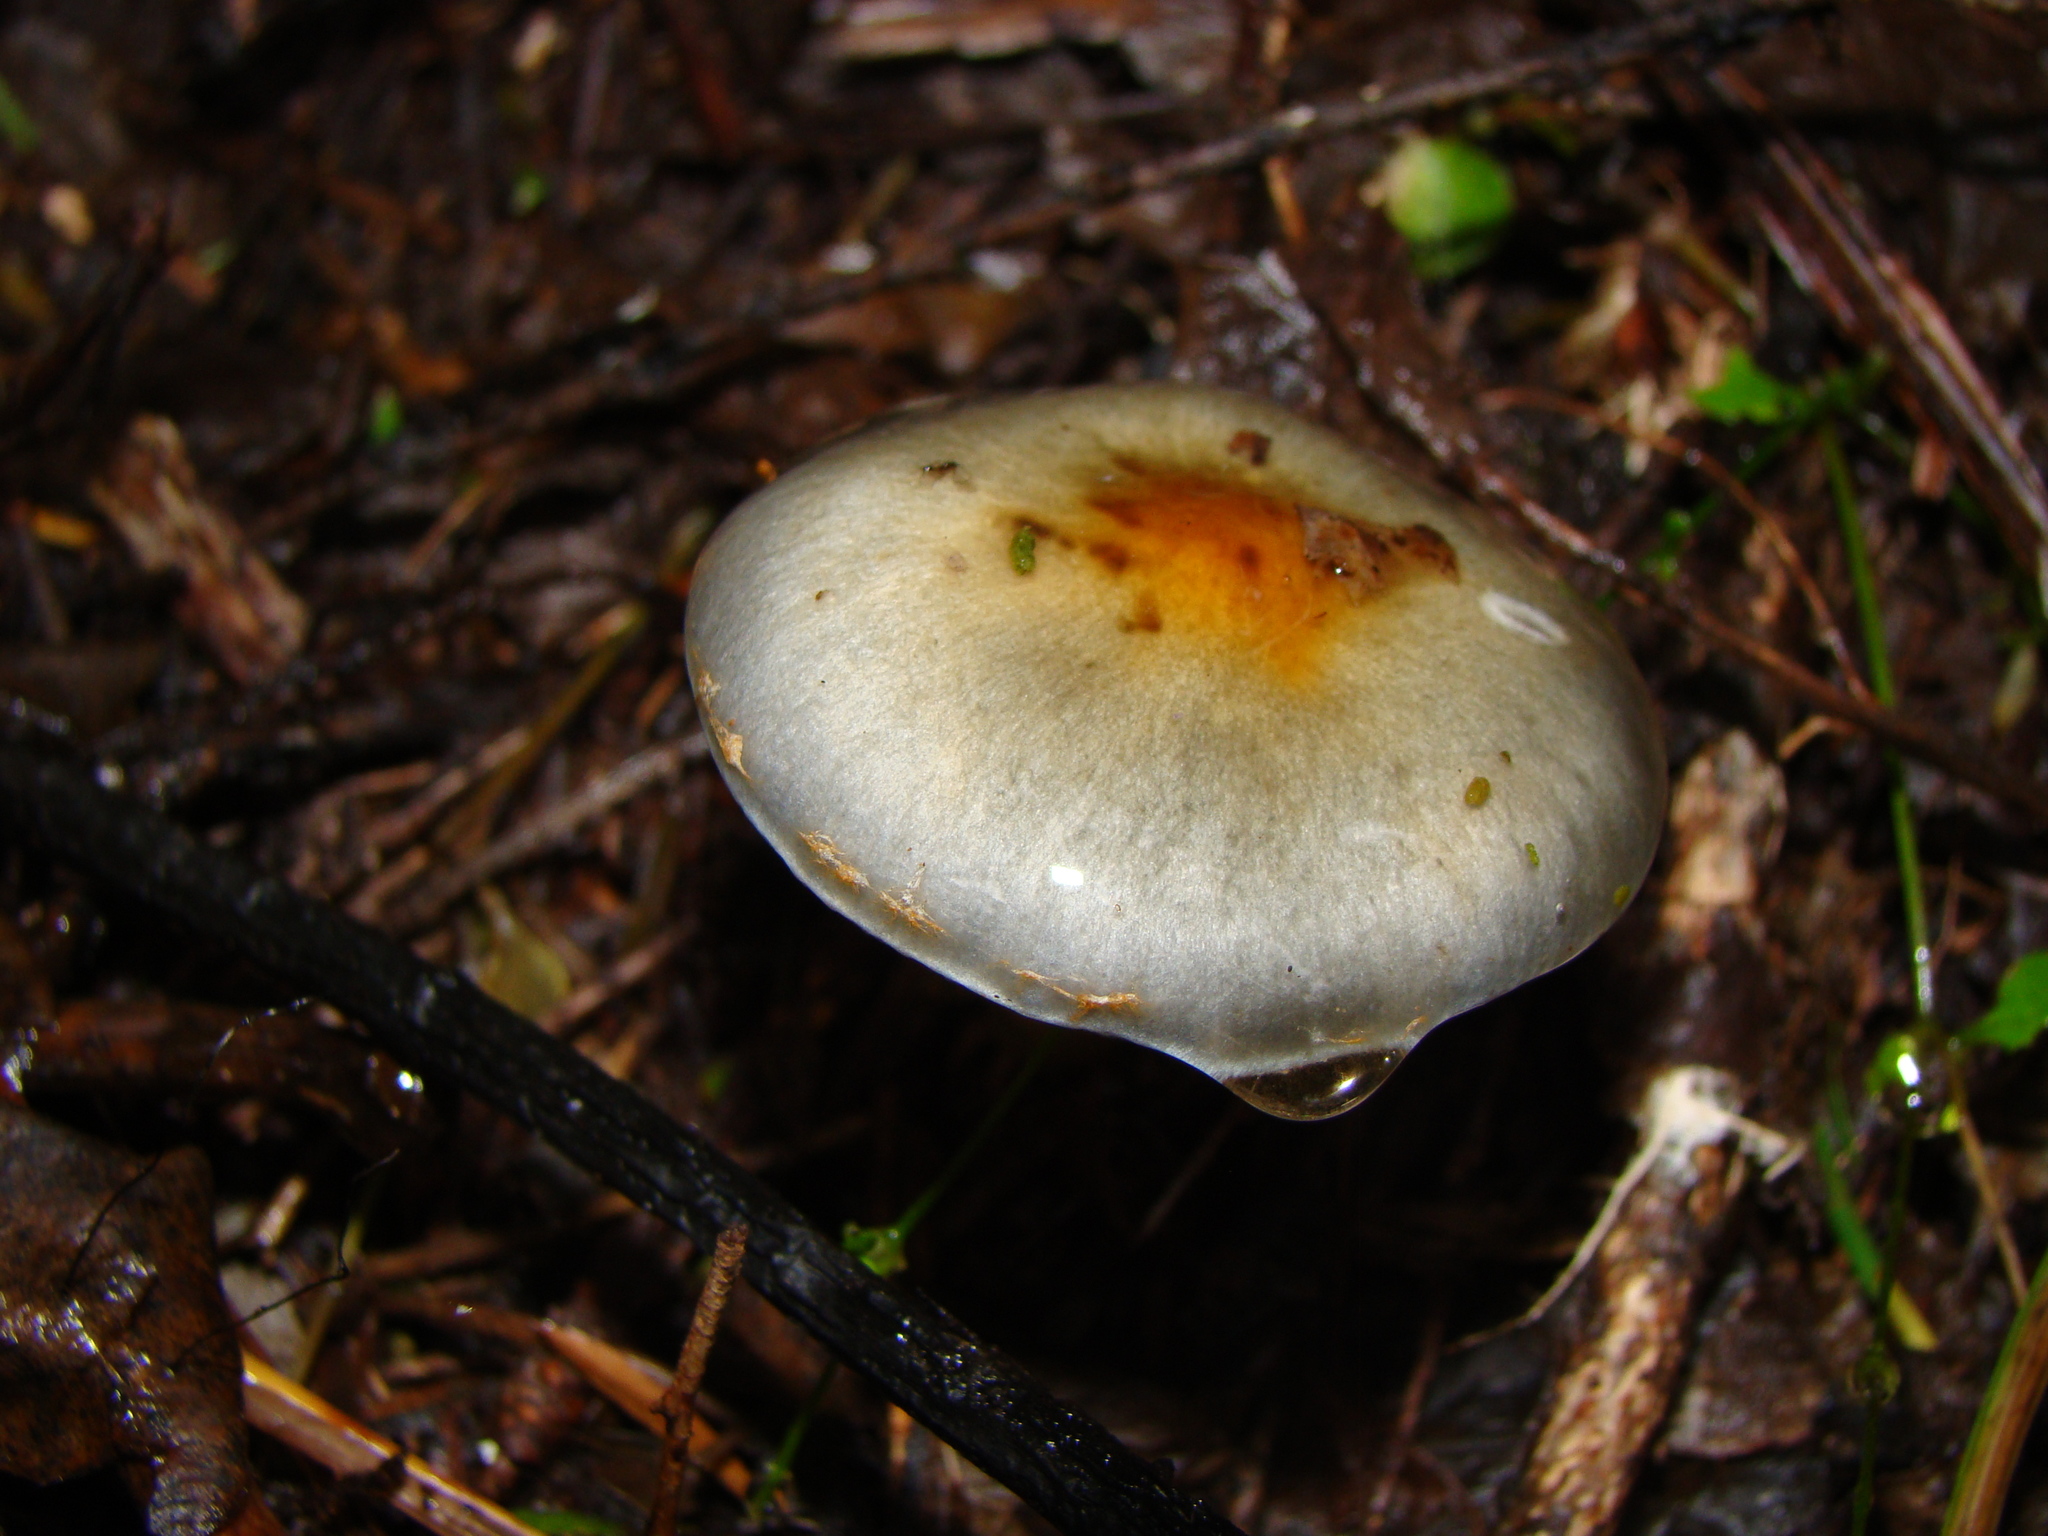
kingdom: Fungi
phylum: Basidiomycota
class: Agaricomycetes
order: Agaricales
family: Cortinariaceae
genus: Cortinarius
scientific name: Cortinarius
